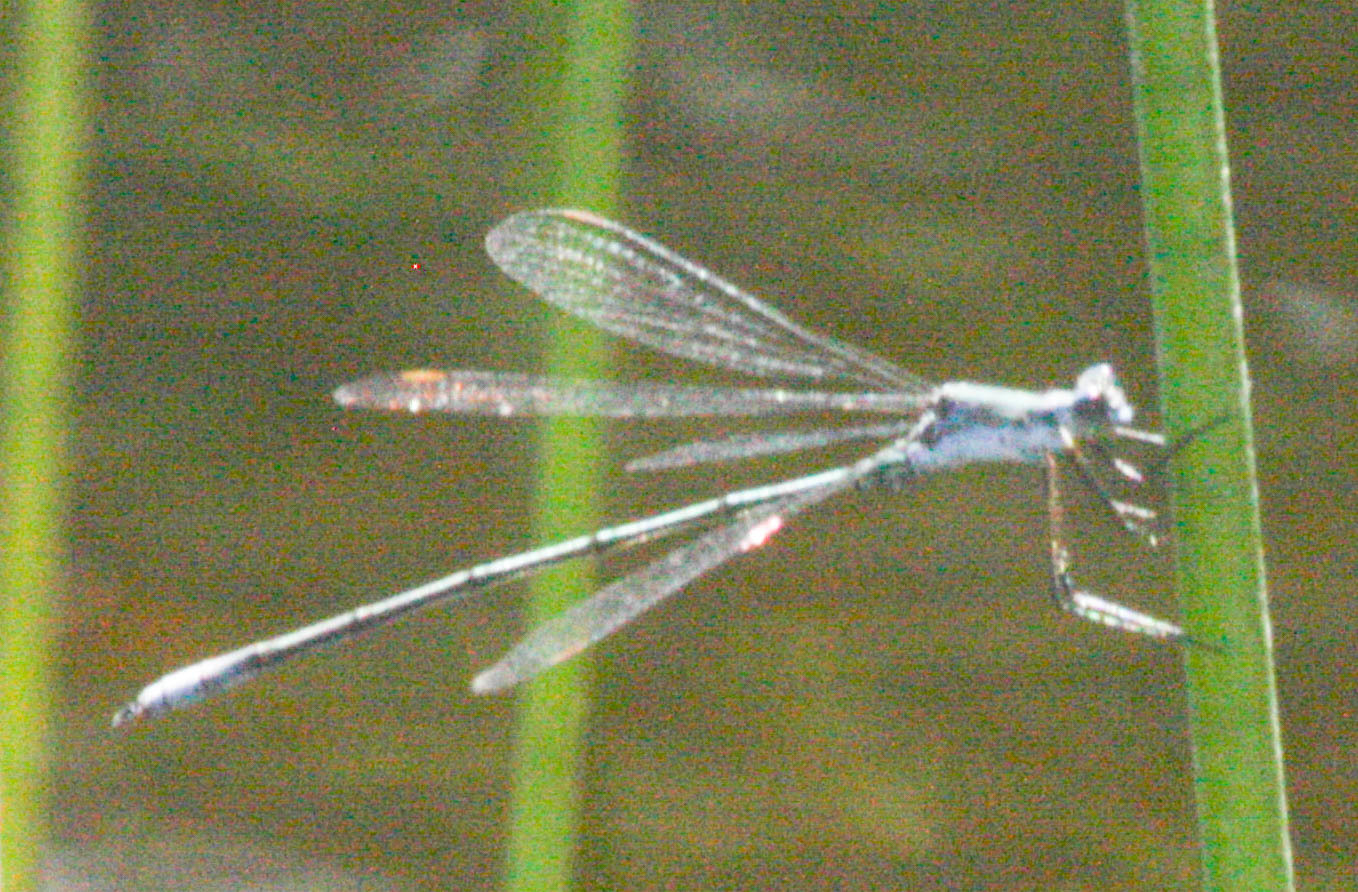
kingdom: Animalia
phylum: Arthropoda
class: Insecta
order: Odonata
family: Lestidae
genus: Lestes
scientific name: Lestes
